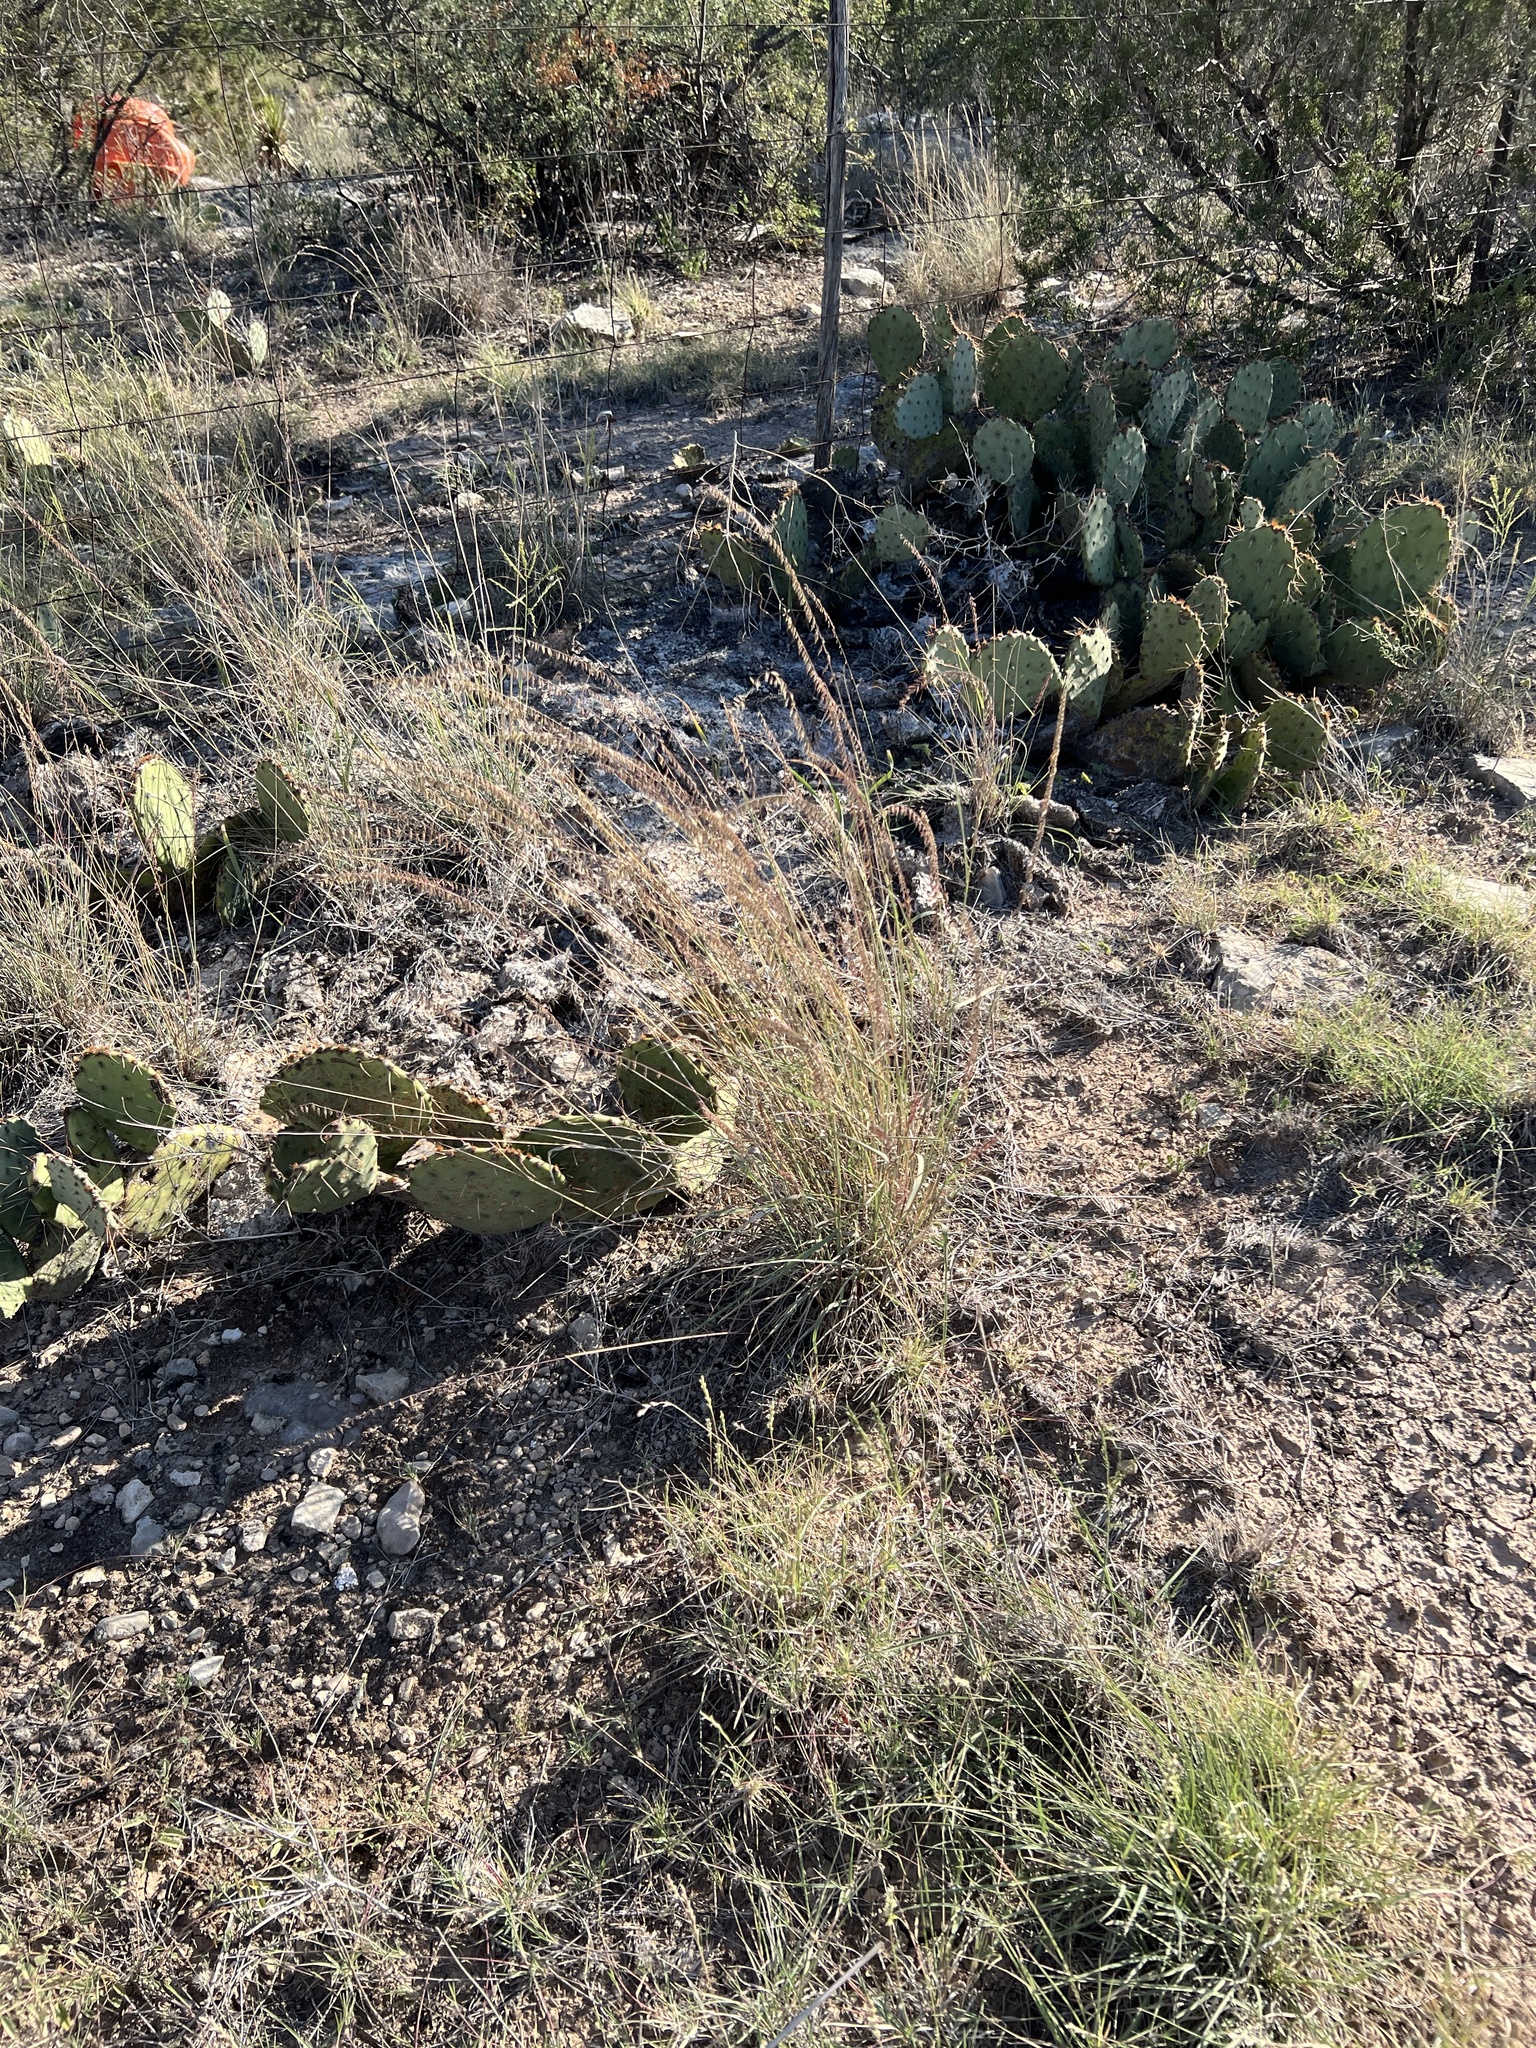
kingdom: Plantae
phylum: Tracheophyta
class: Liliopsida
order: Poales
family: Poaceae
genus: Bouteloua
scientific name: Bouteloua curtipendula
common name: Side-oats grama
